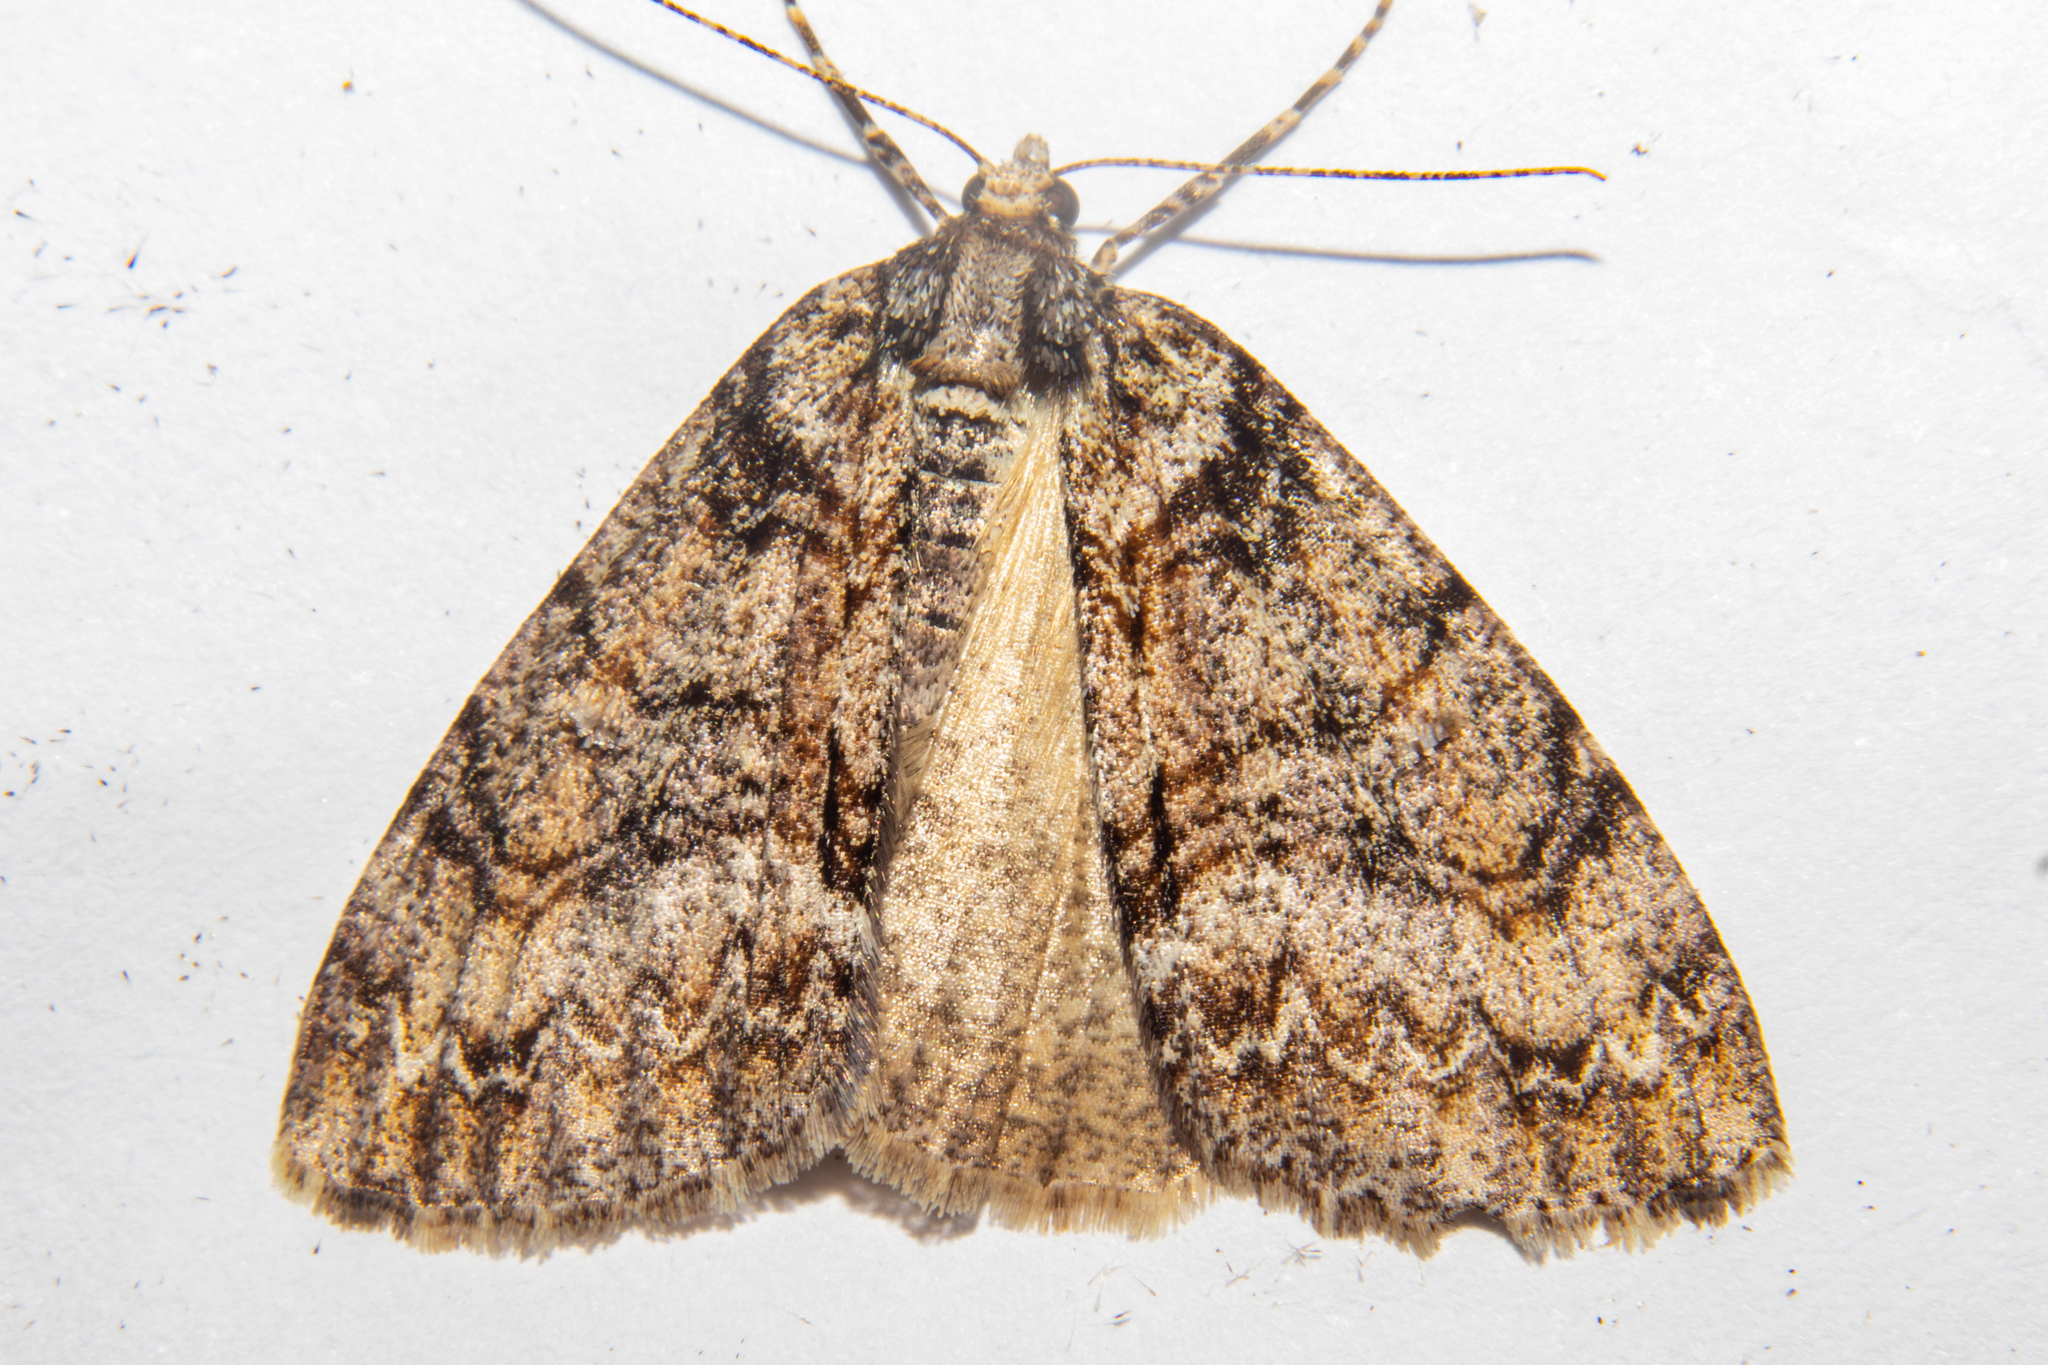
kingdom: Animalia
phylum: Arthropoda
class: Insecta
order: Lepidoptera
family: Geometridae
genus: Pseudocoremia
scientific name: Pseudocoremia suavis
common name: Common forest looper
